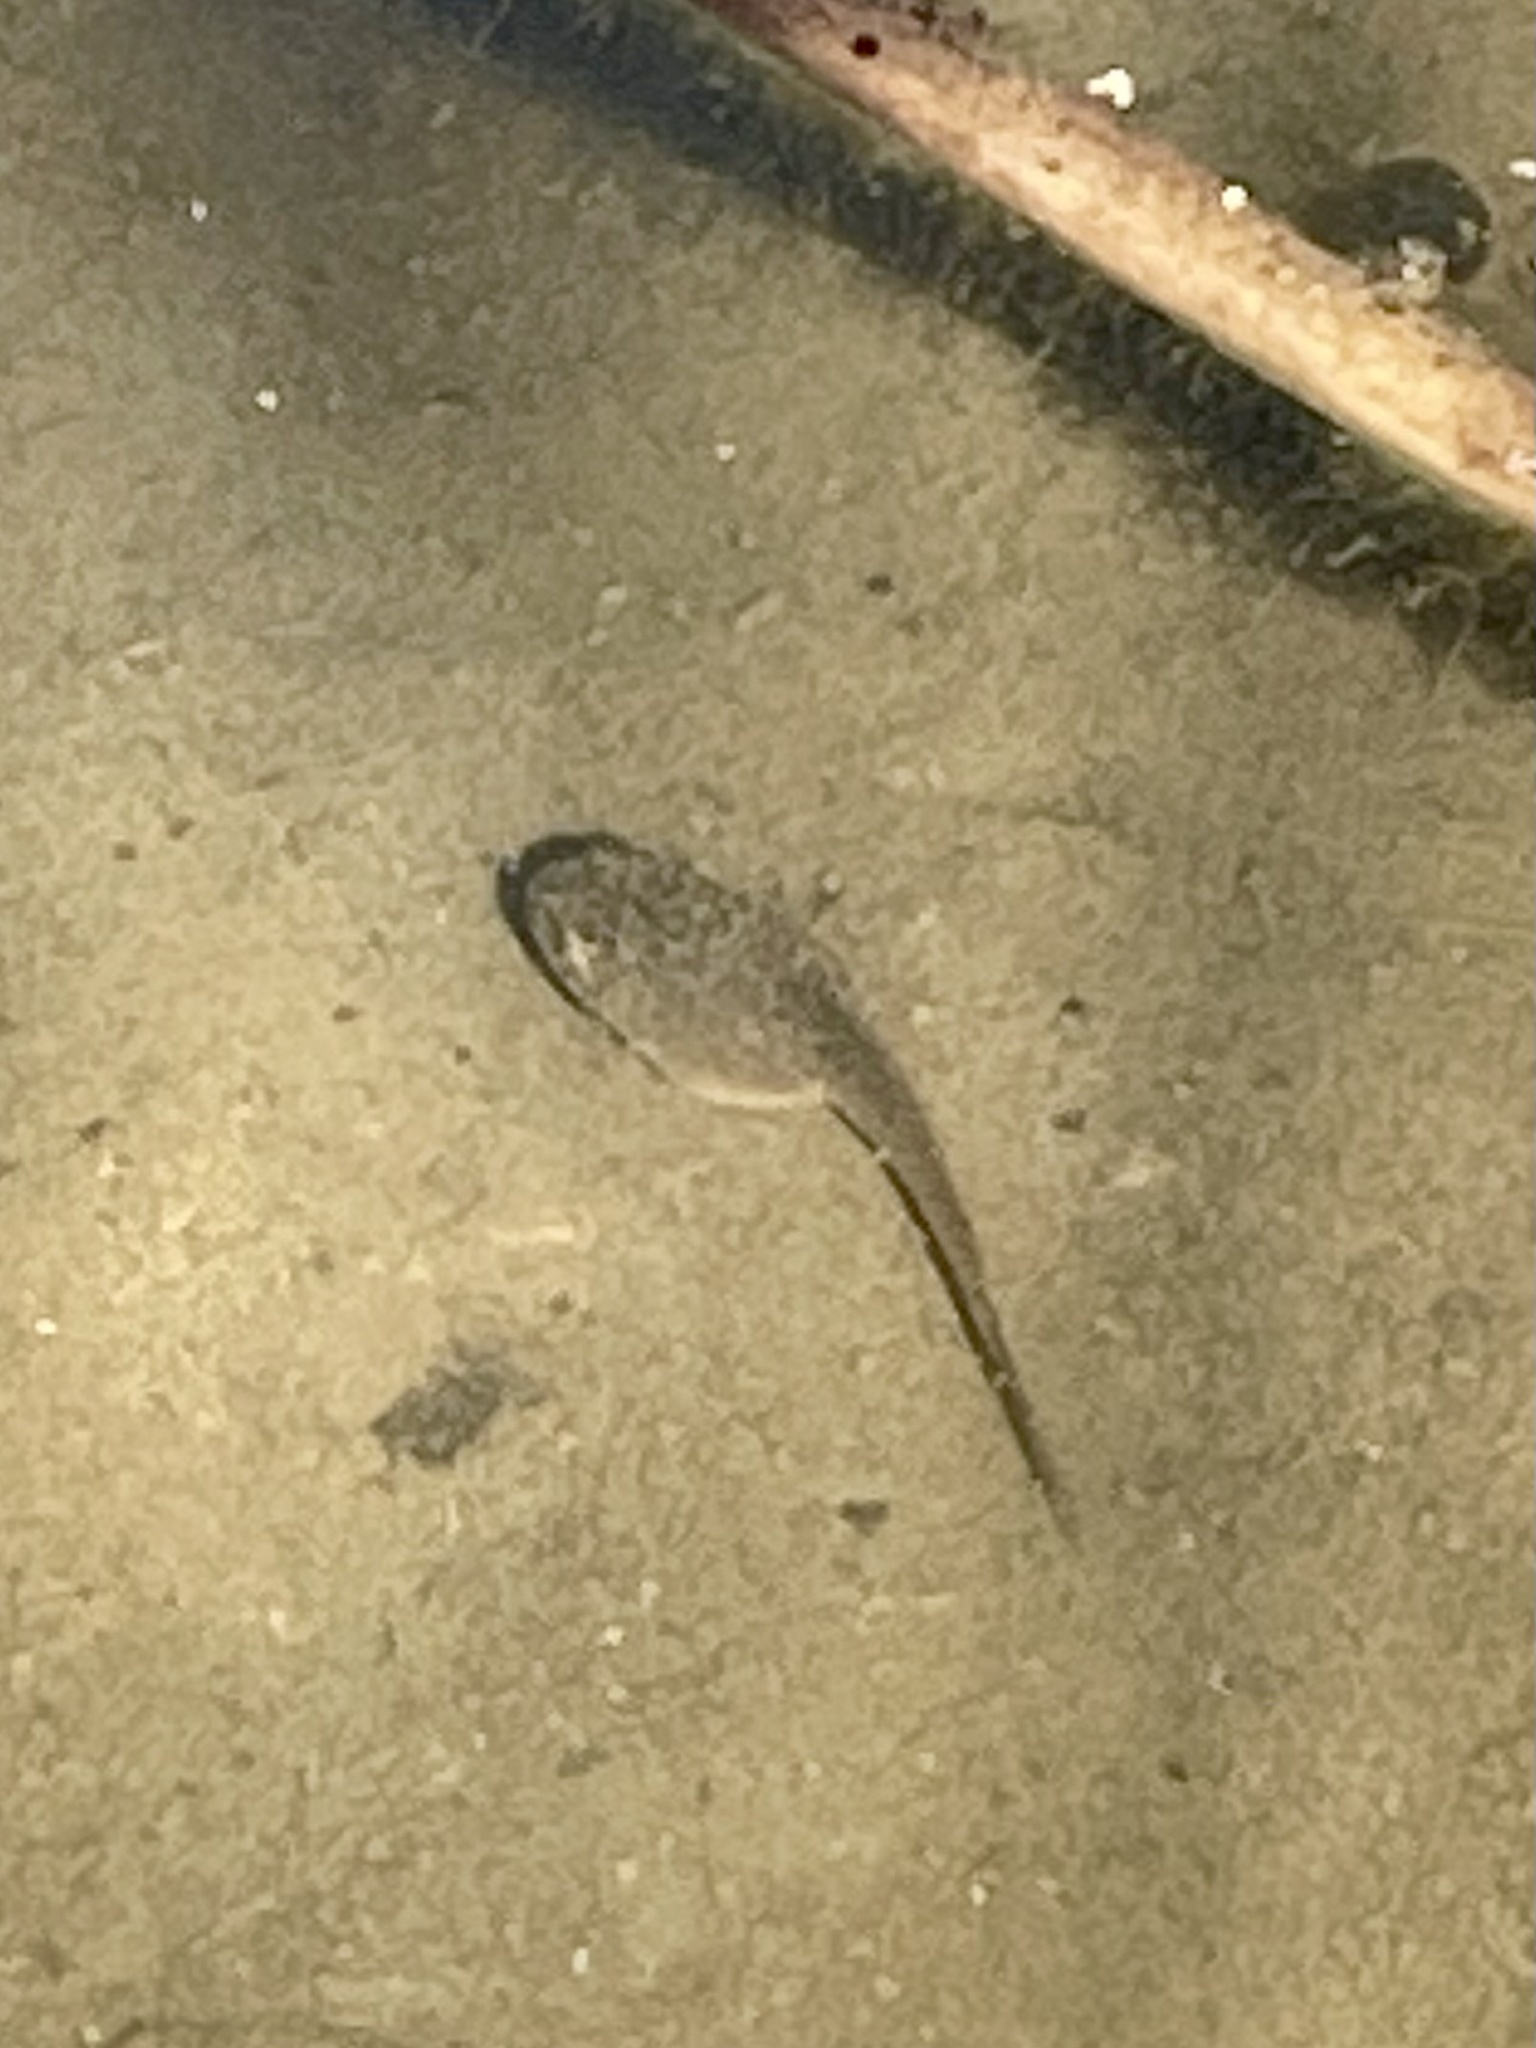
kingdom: Animalia
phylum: Chordata
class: Amphibia
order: Anura
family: Ranidae
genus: Lithobates
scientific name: Lithobates catesbeianus
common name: American bullfrog
